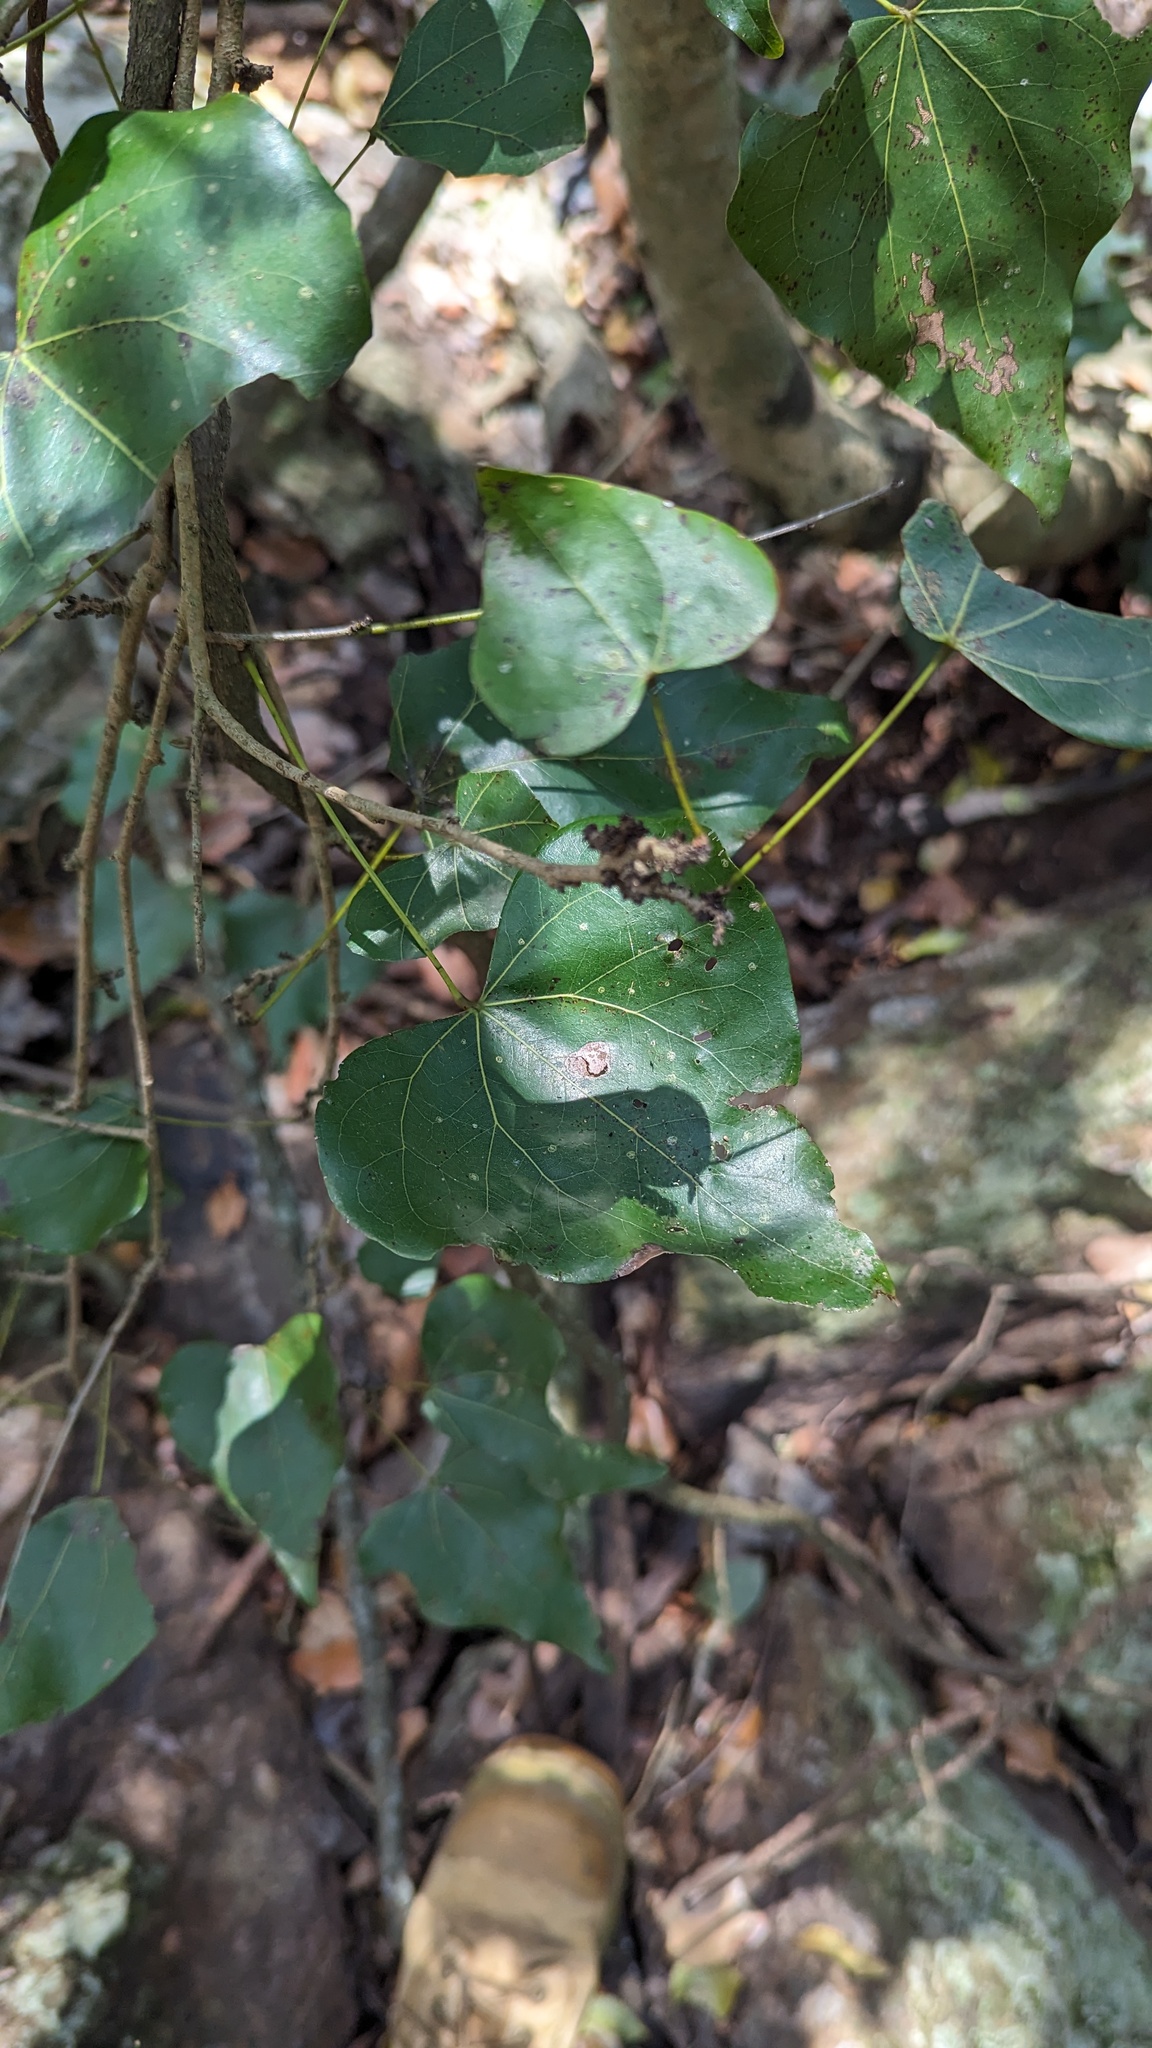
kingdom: Plantae
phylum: Tracheophyta
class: Magnoliopsida
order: Fabales
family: Fabaceae
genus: Barklya
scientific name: Barklya syringifolia
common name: Crown-of-gold-tree
